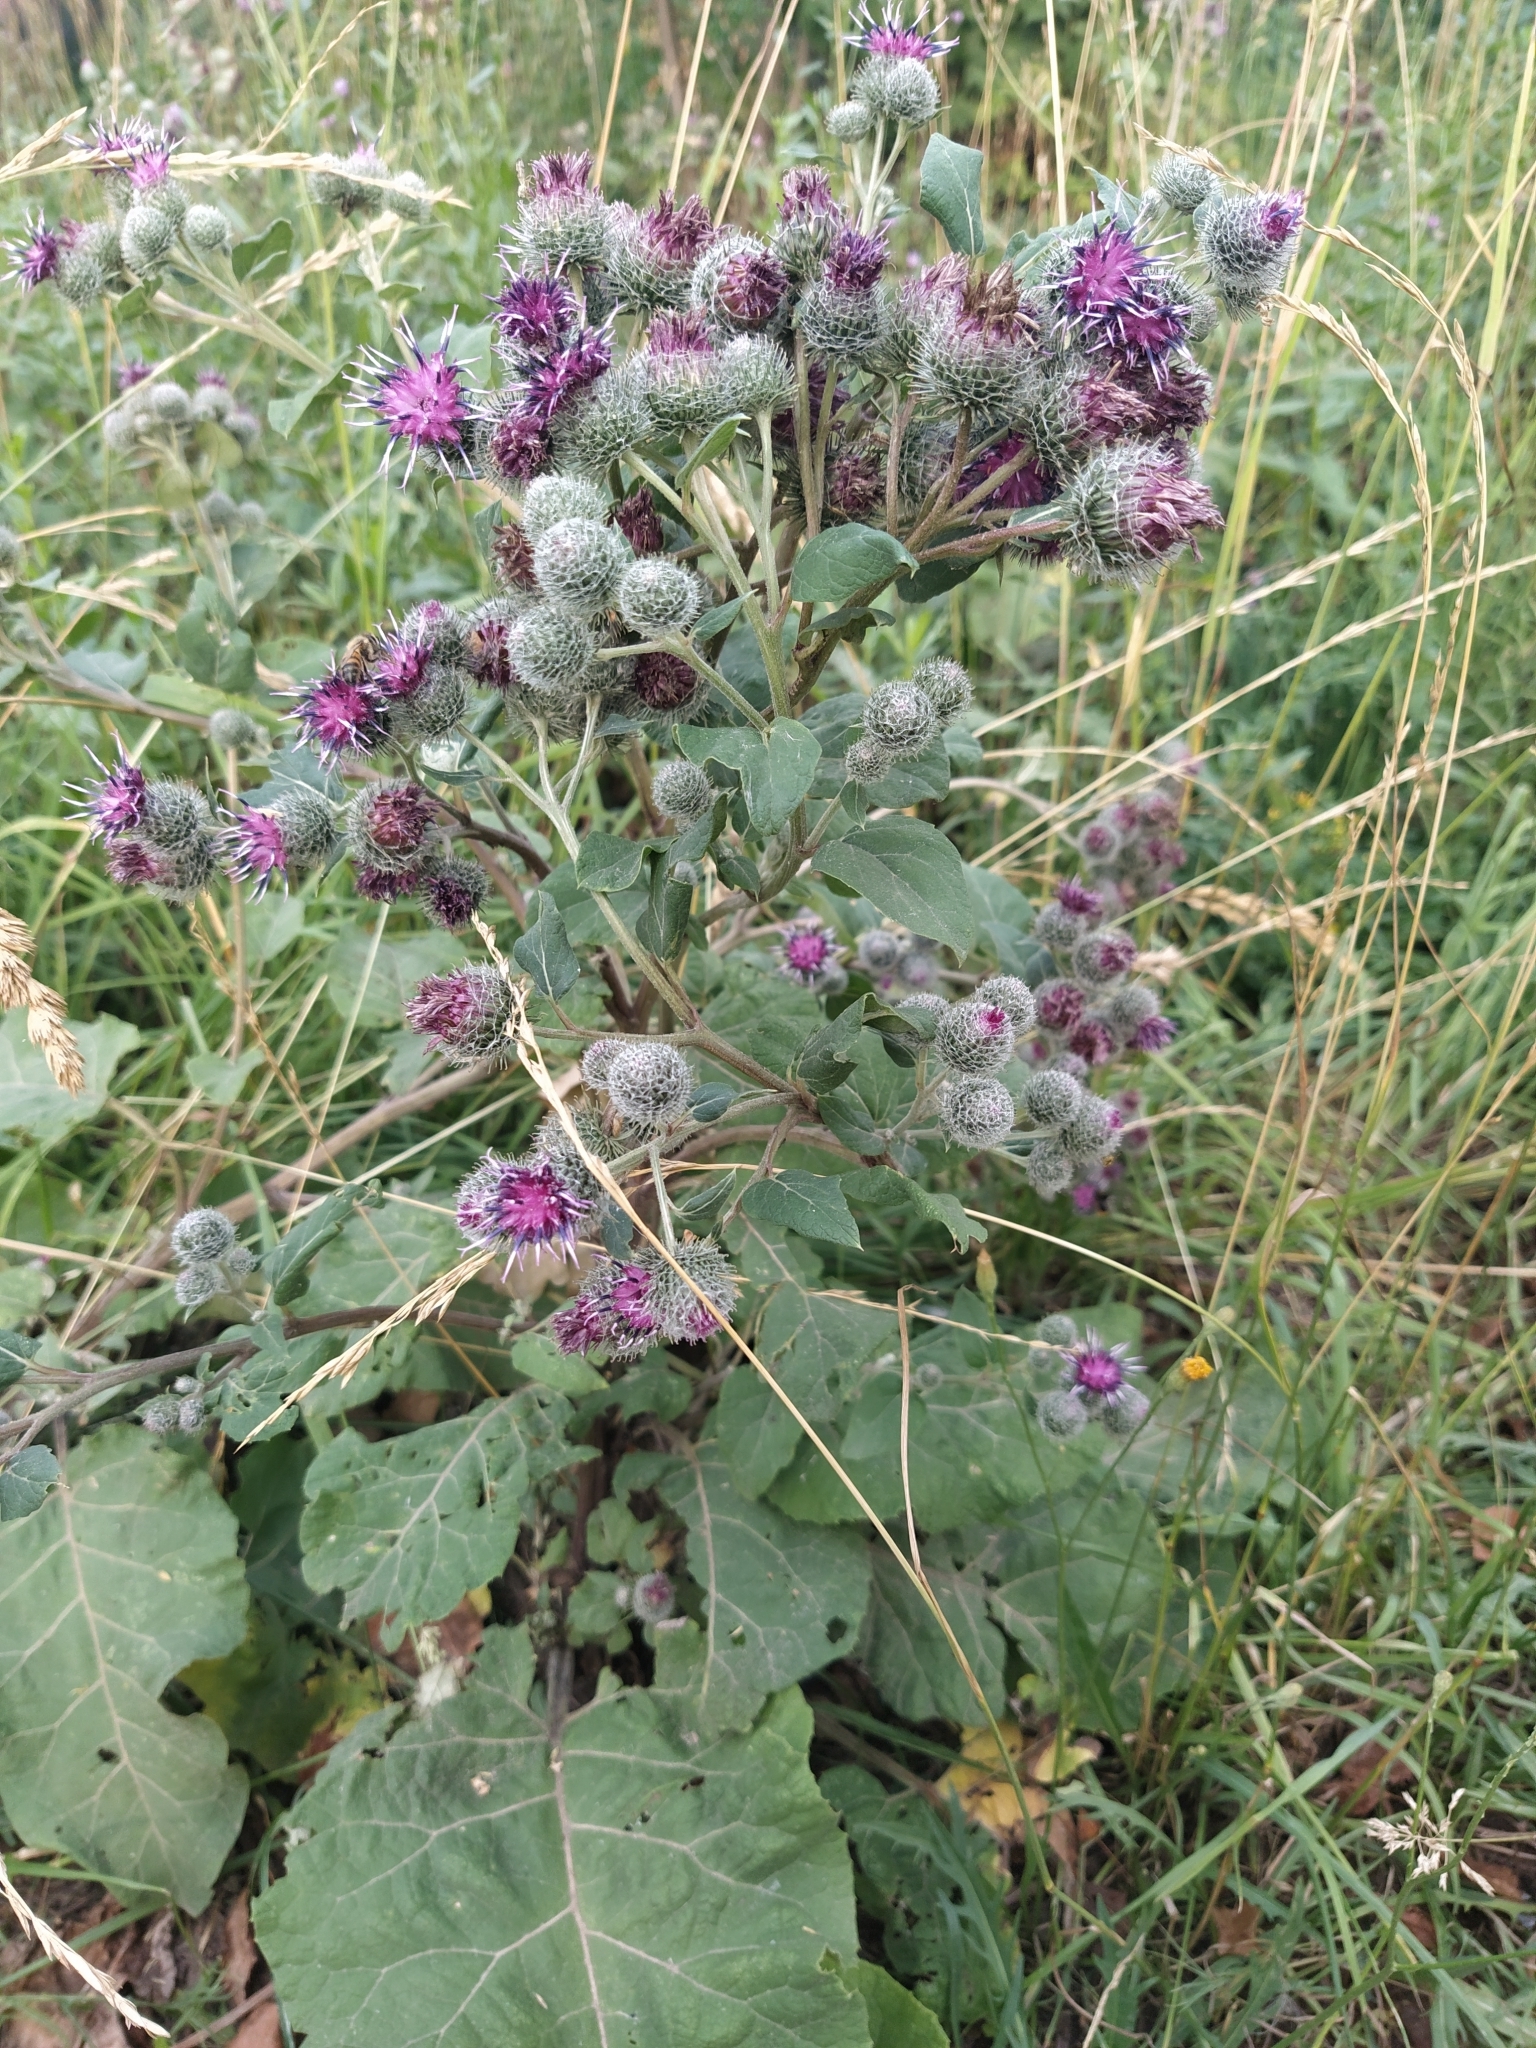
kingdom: Plantae
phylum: Tracheophyta
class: Magnoliopsida
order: Asterales
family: Asteraceae
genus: Arctium
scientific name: Arctium tomentosum
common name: Woolly burdock
